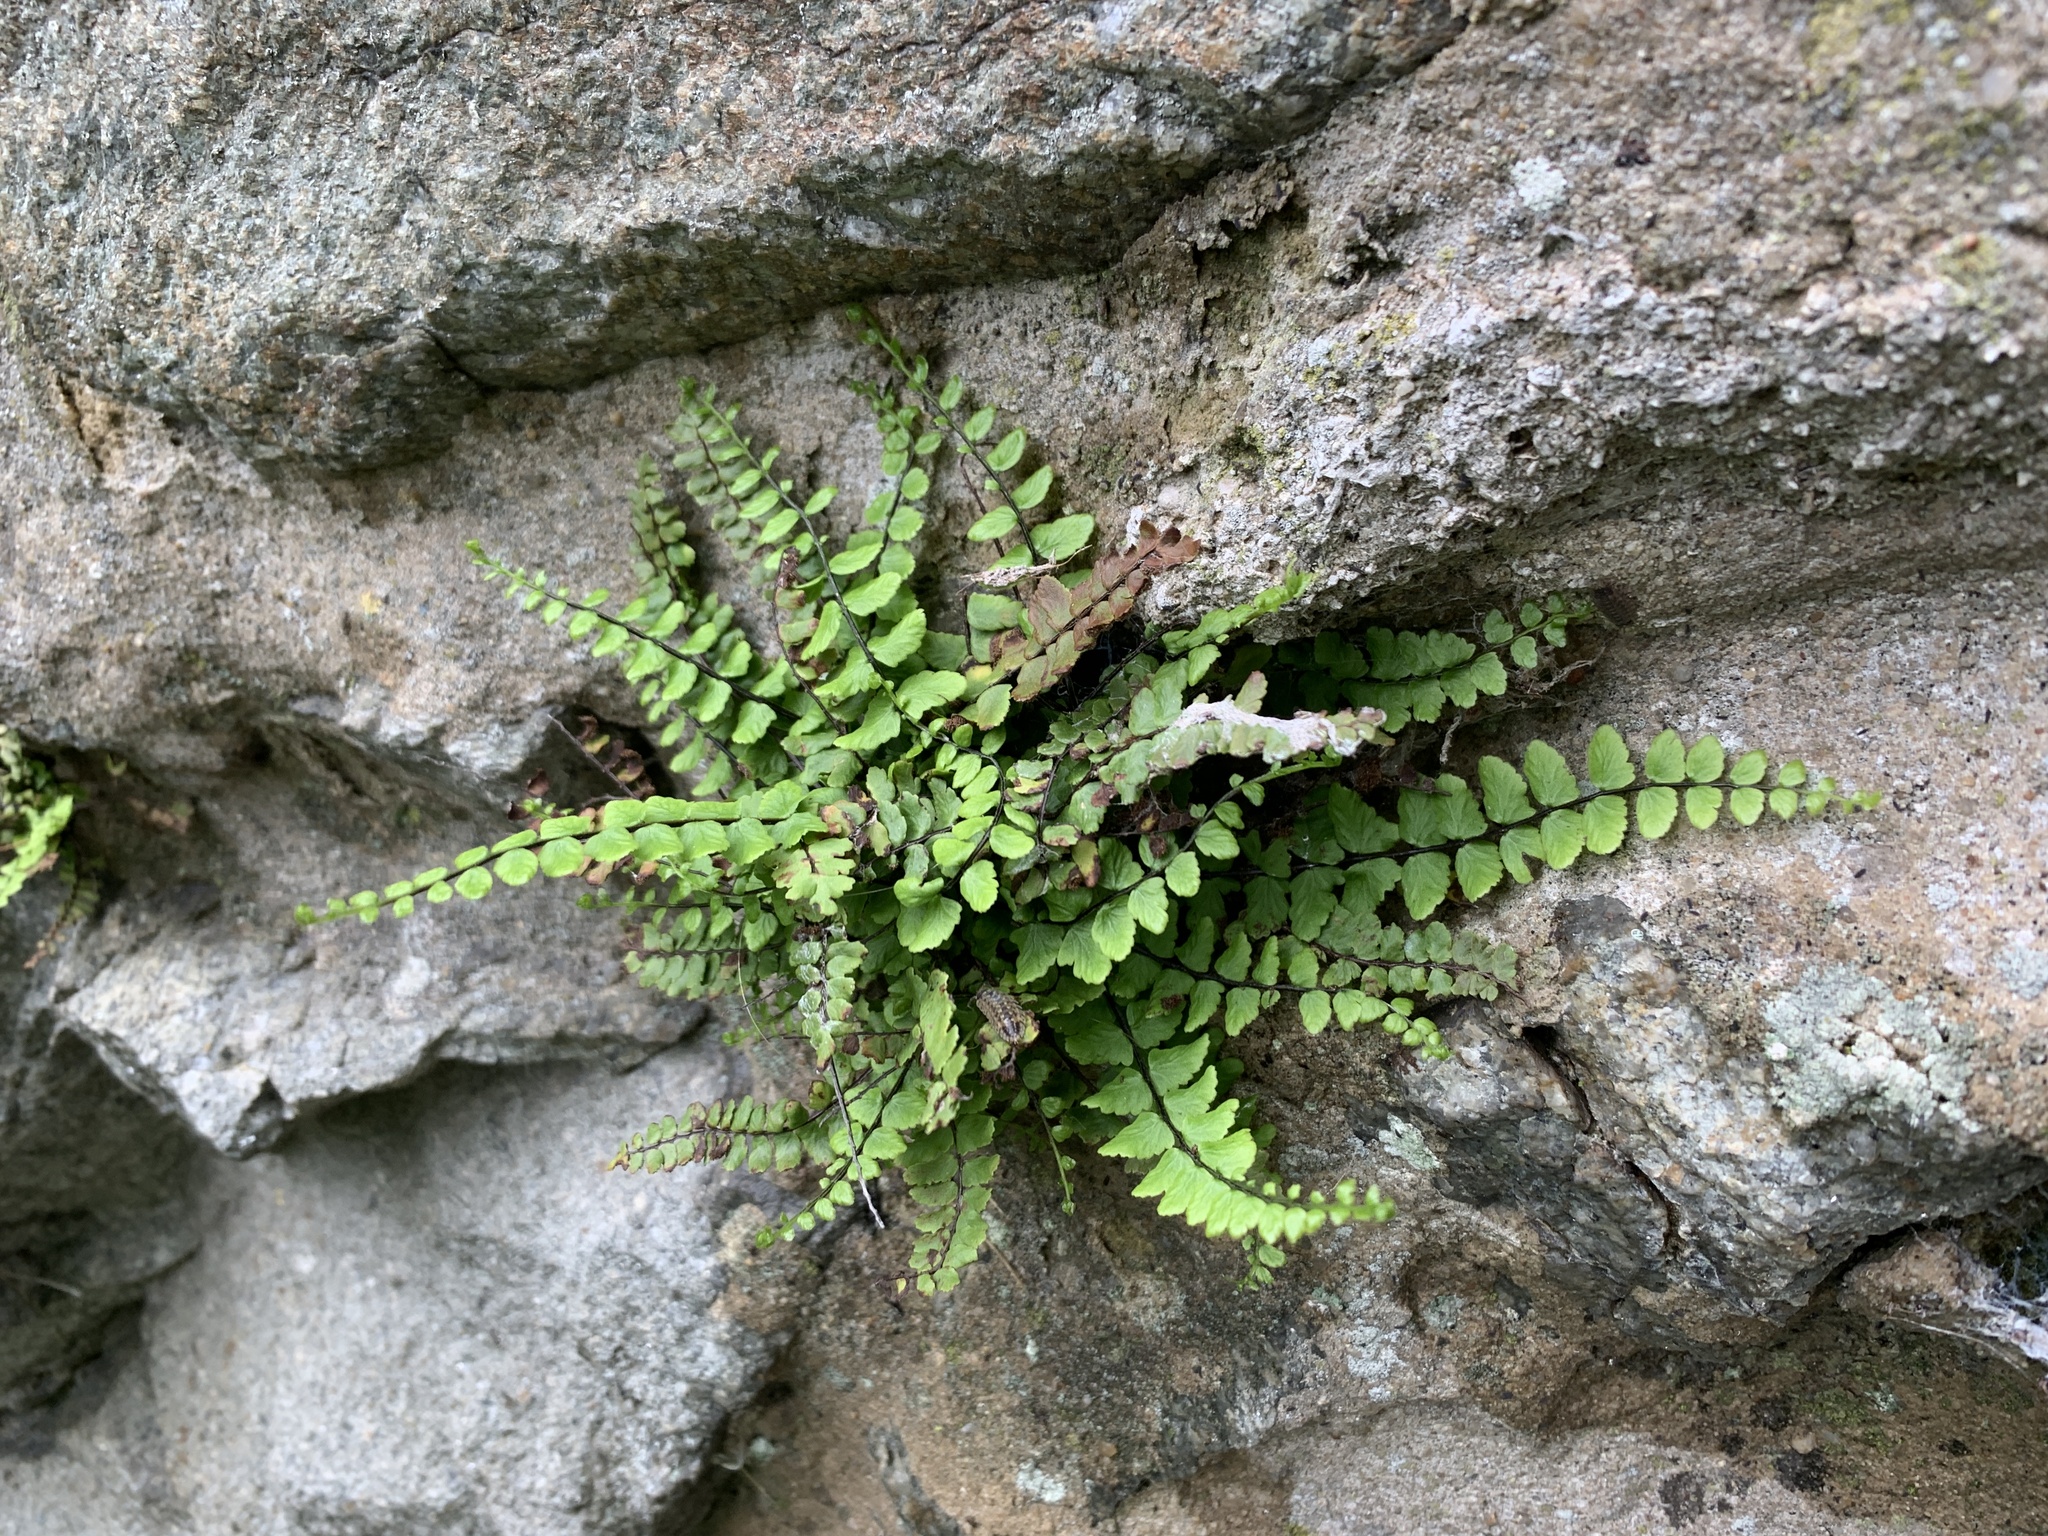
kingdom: Plantae
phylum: Tracheophyta
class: Polypodiopsida
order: Polypodiales
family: Aspleniaceae
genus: Asplenium
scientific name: Asplenium trichomanes
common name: Maidenhair spleenwort
